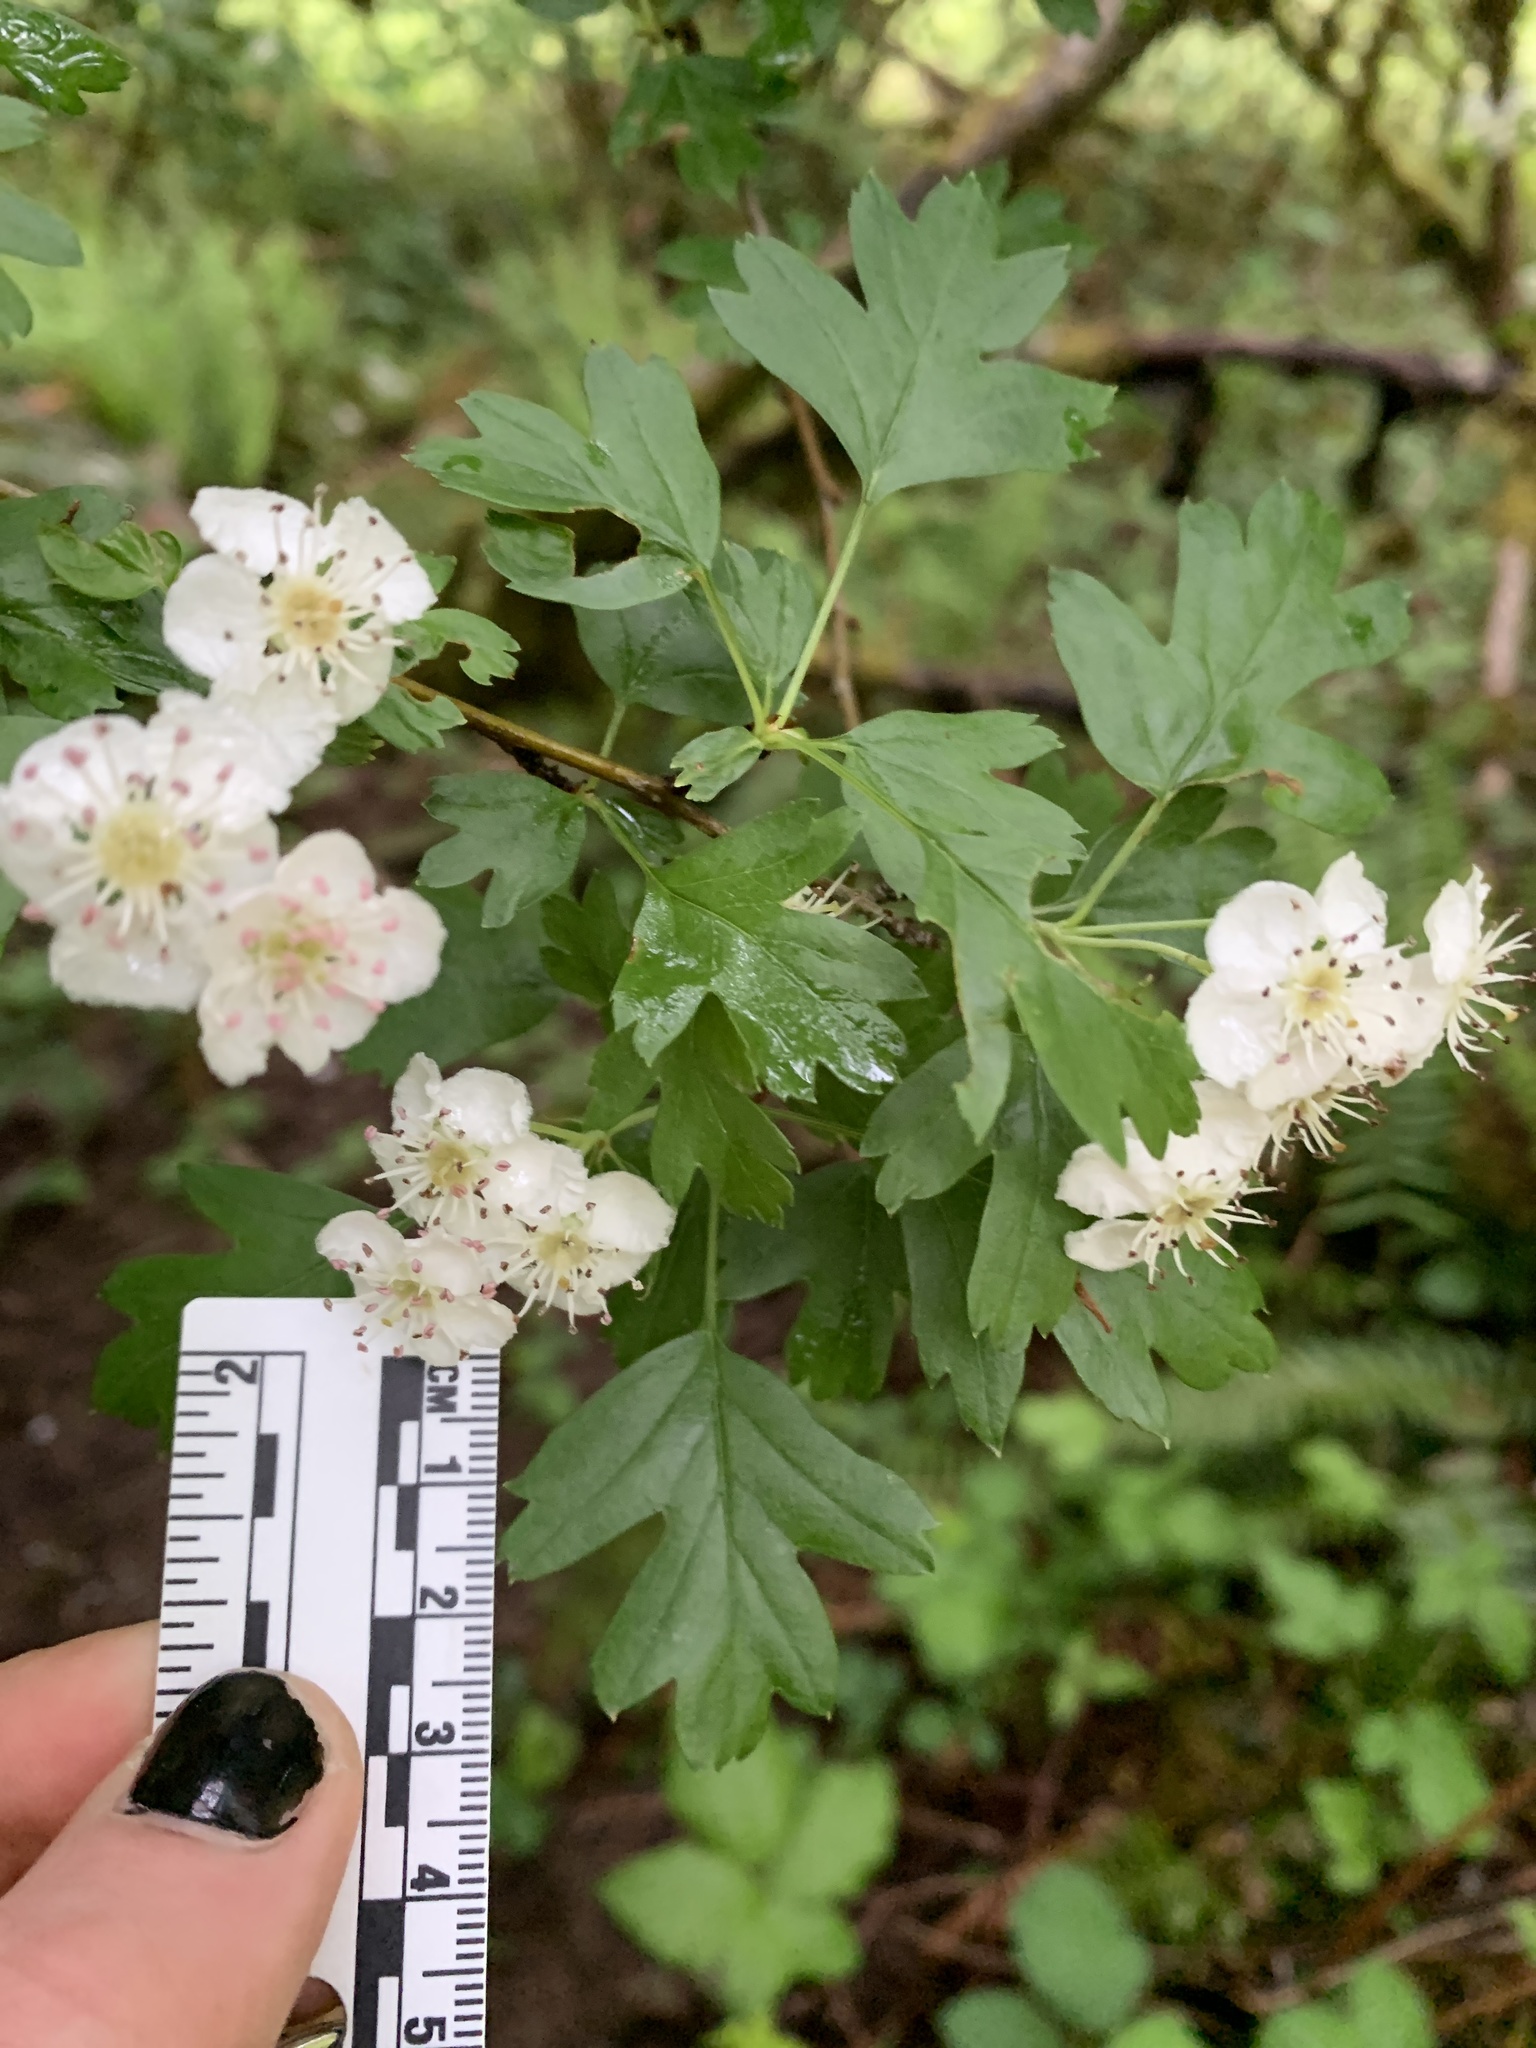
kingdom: Plantae
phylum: Tracheophyta
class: Magnoliopsida
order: Rosales
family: Rosaceae
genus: Crataegus
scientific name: Crataegus monogyna
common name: Hawthorn
